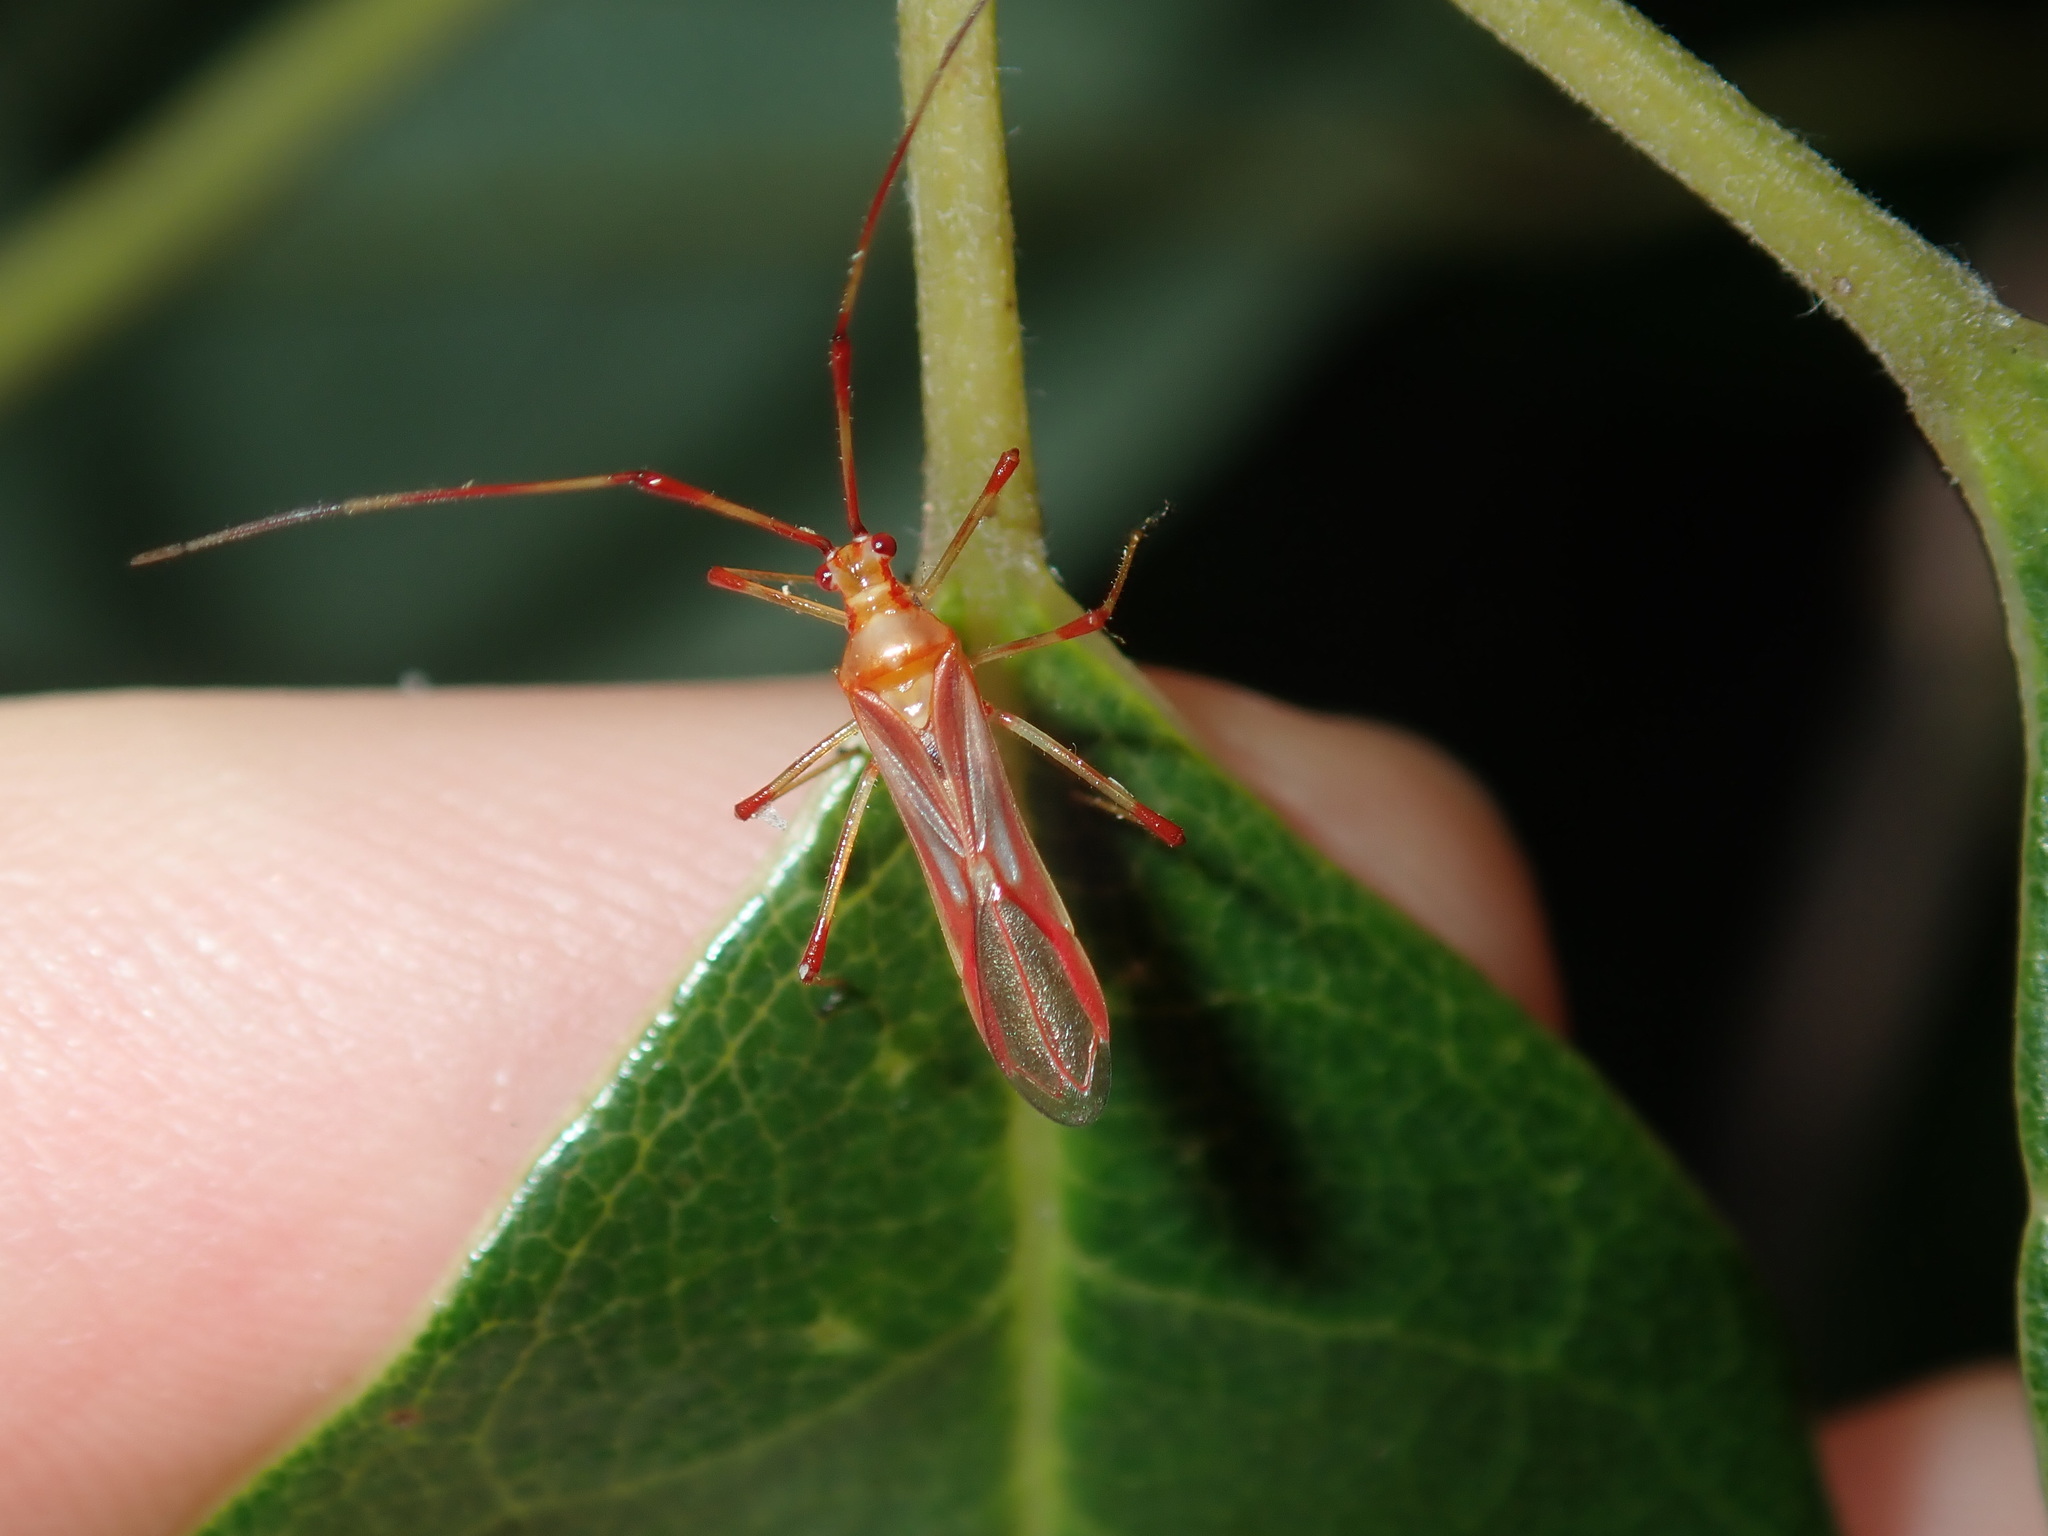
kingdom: Animalia
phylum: Arthropoda
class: Insecta
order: Hemiptera
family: Miridae
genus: Ragwelellus
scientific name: Ragwelellus suspectus
